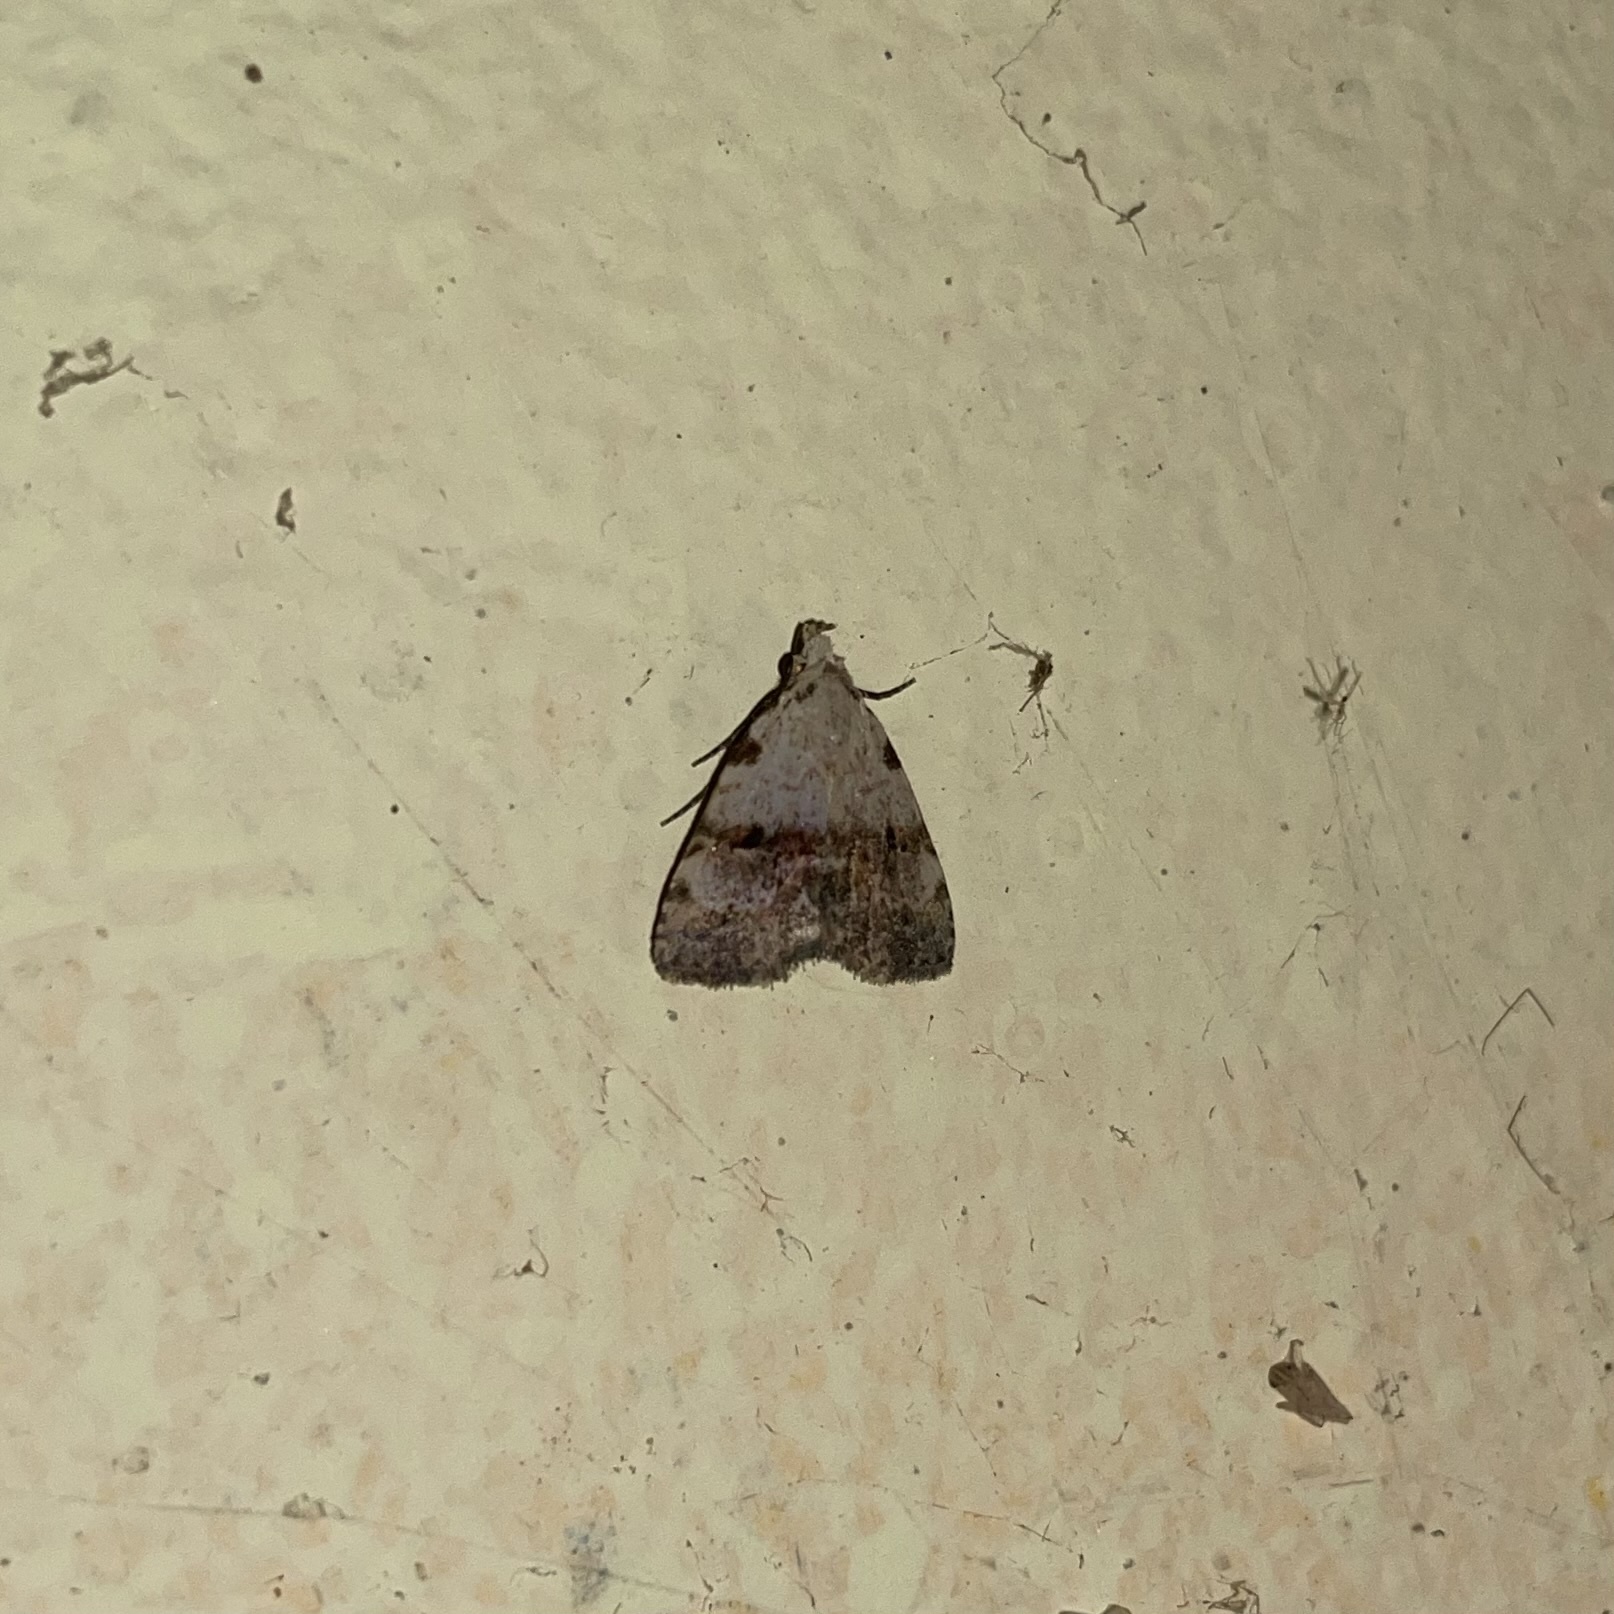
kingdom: Animalia
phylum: Arthropoda
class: Insecta
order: Lepidoptera
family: Erebidae
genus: Bradunia
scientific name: Bradunia costigutta
